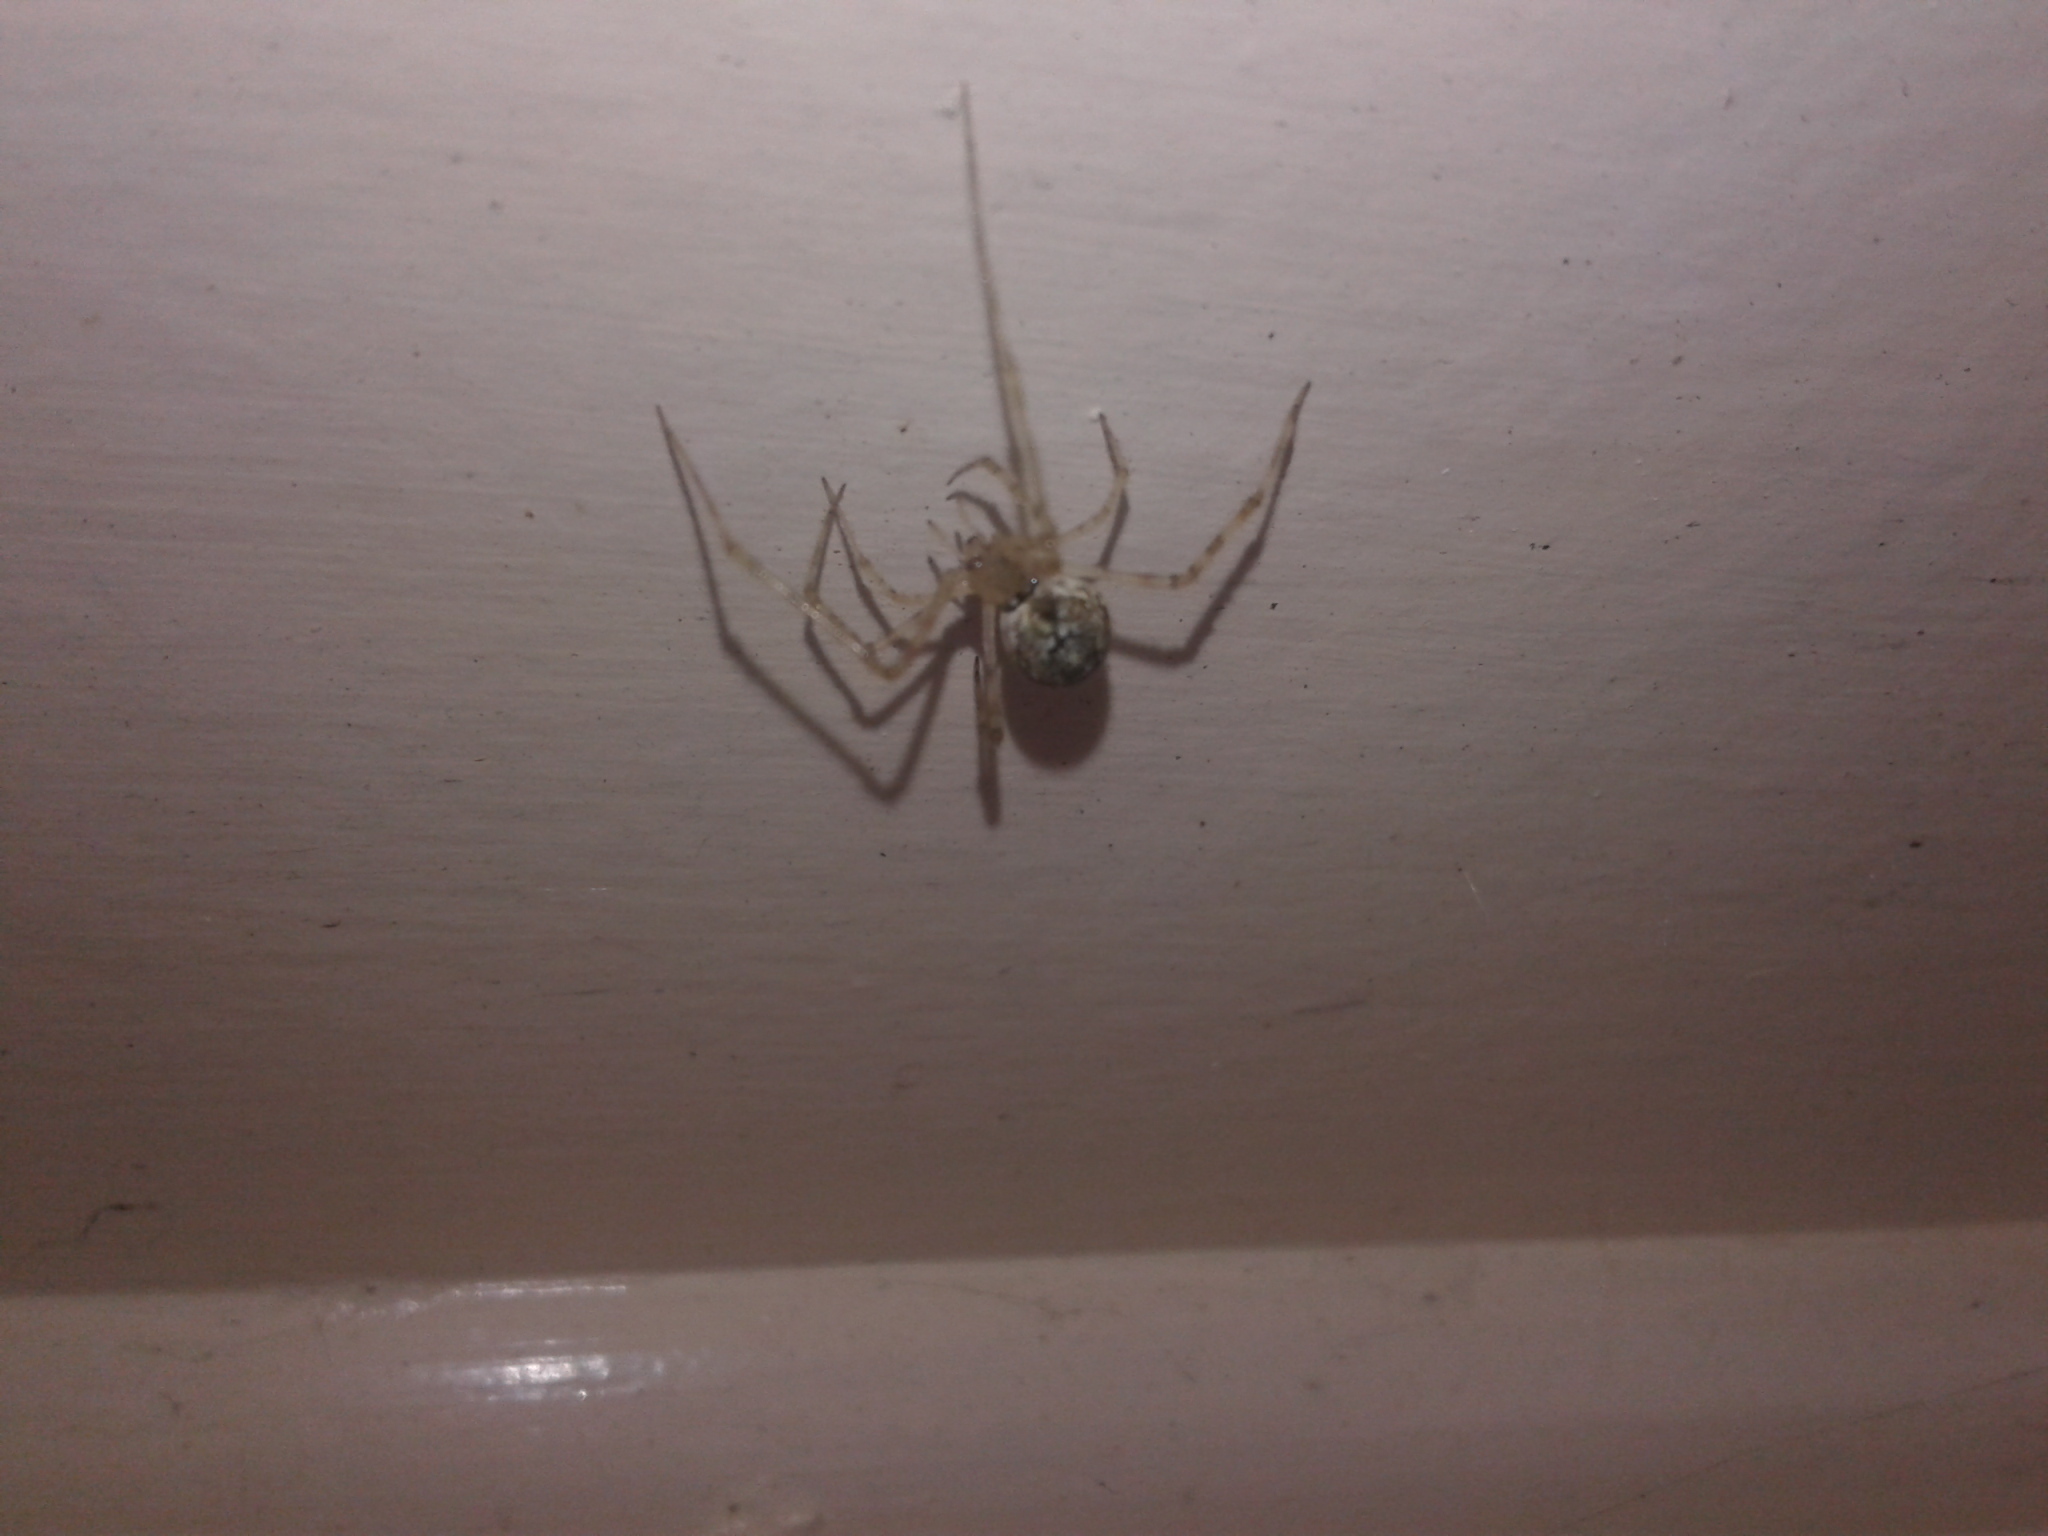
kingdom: Animalia
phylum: Arthropoda
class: Arachnida
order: Araneae
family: Theridiidae
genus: Cryptachaea
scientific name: Cryptachaea gigantipes
